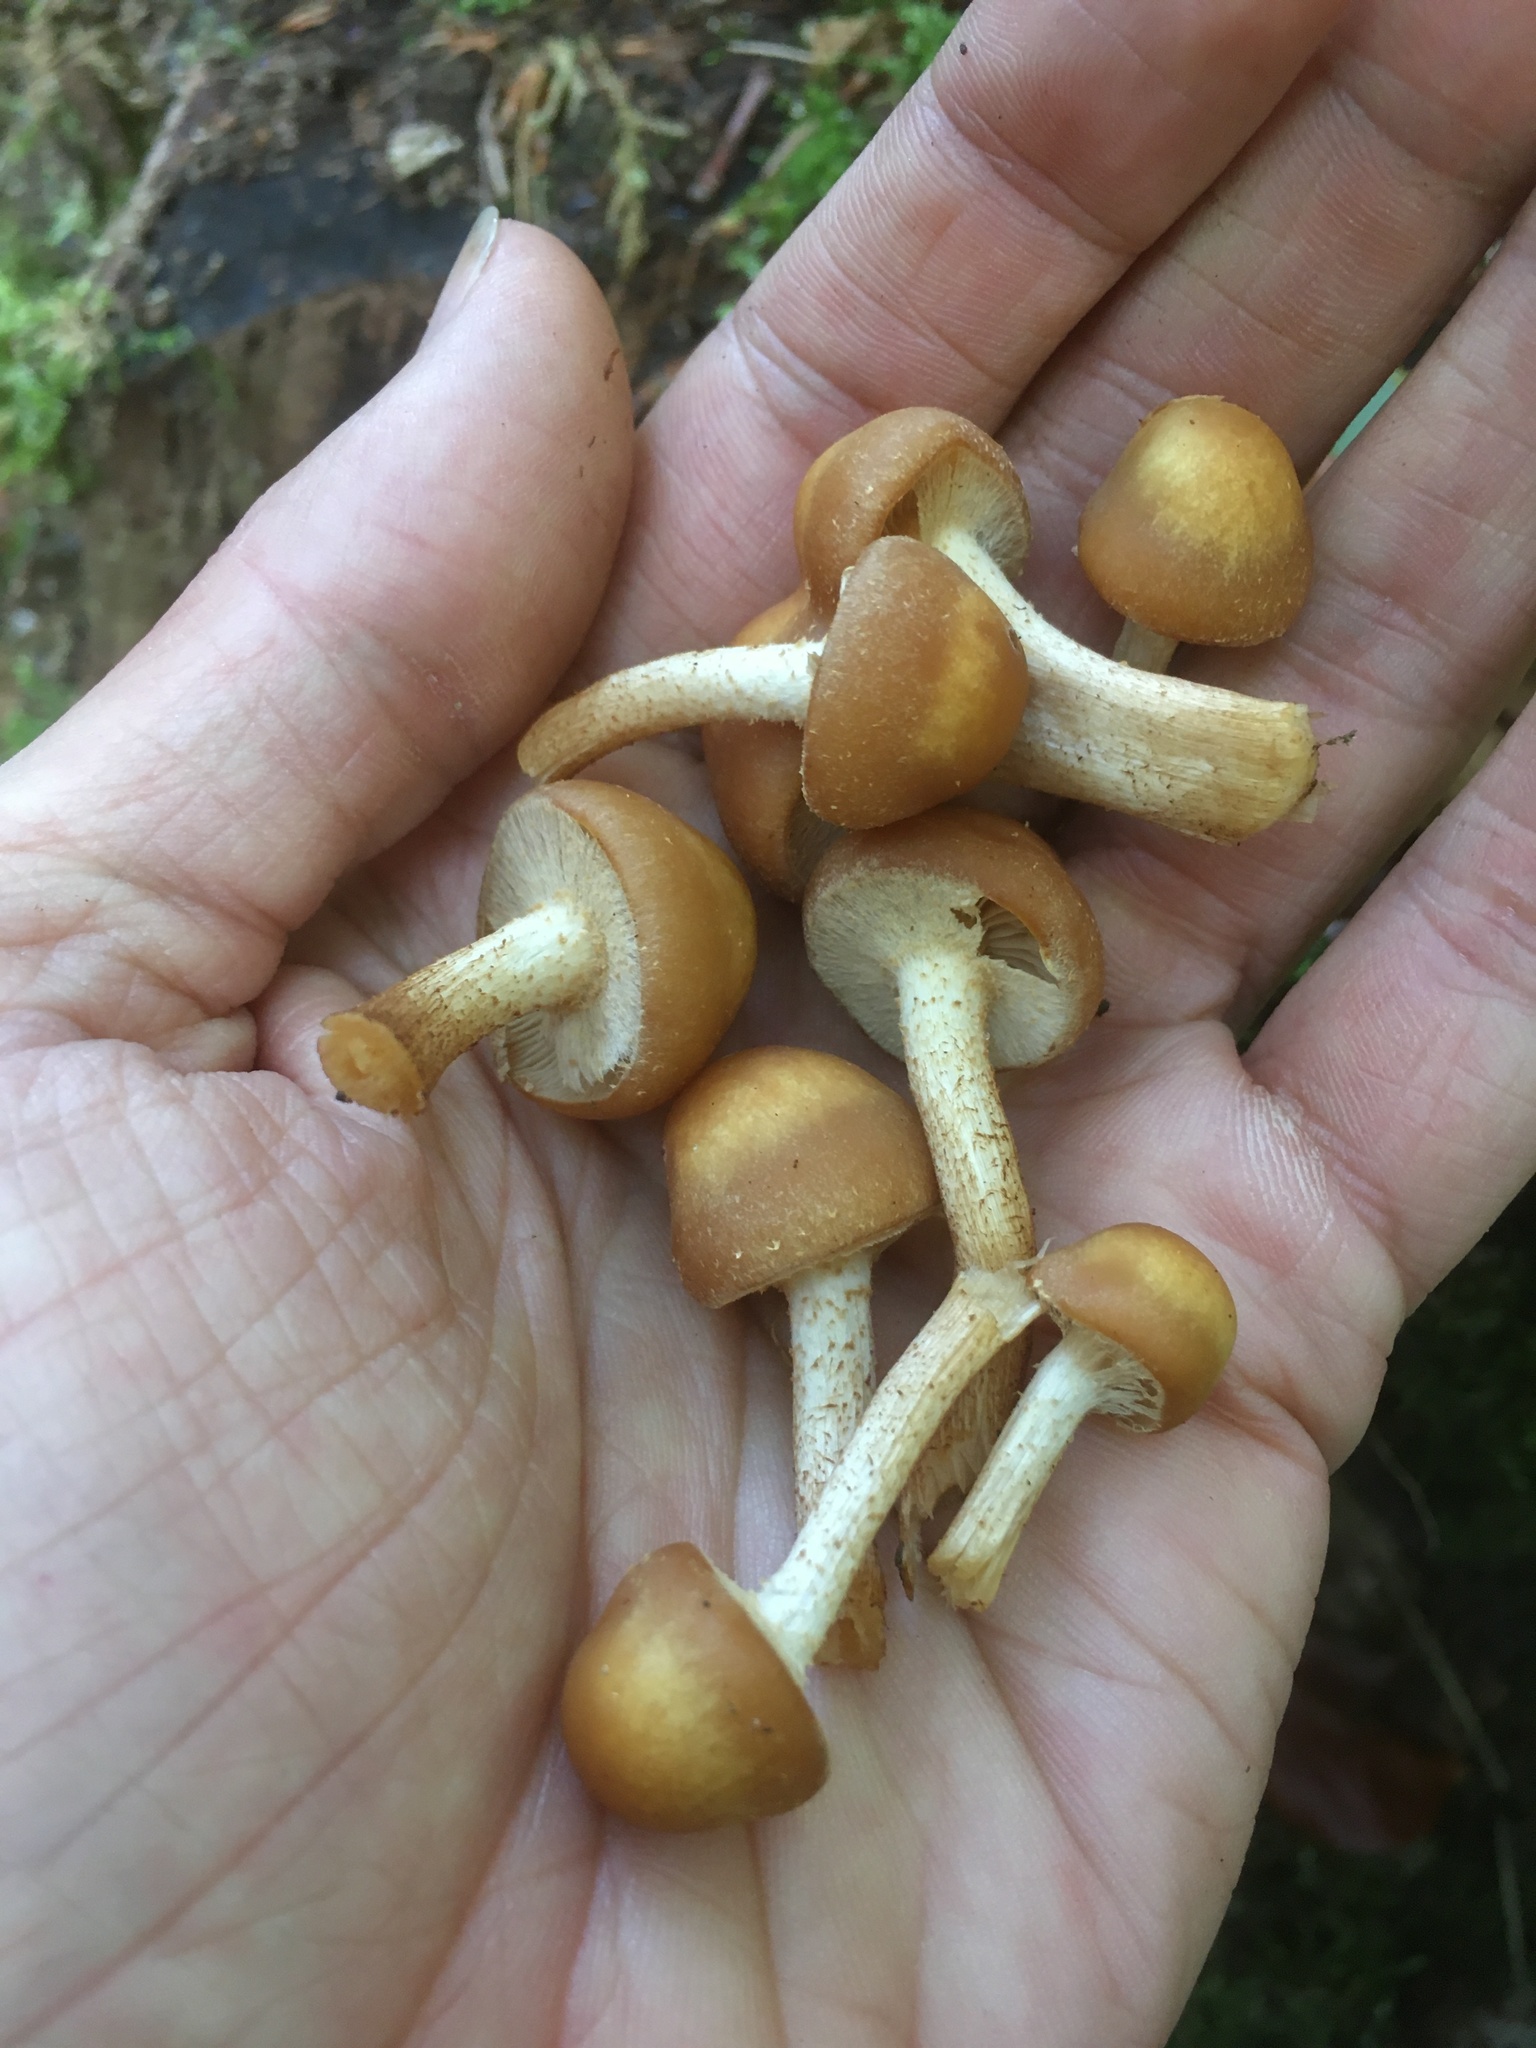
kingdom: Fungi
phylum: Basidiomycota
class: Agaricomycetes
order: Agaricales
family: Strophariaceae
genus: Kuehneromyces
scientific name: Kuehneromyces mutabilis
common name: Sheathed woodtuft
